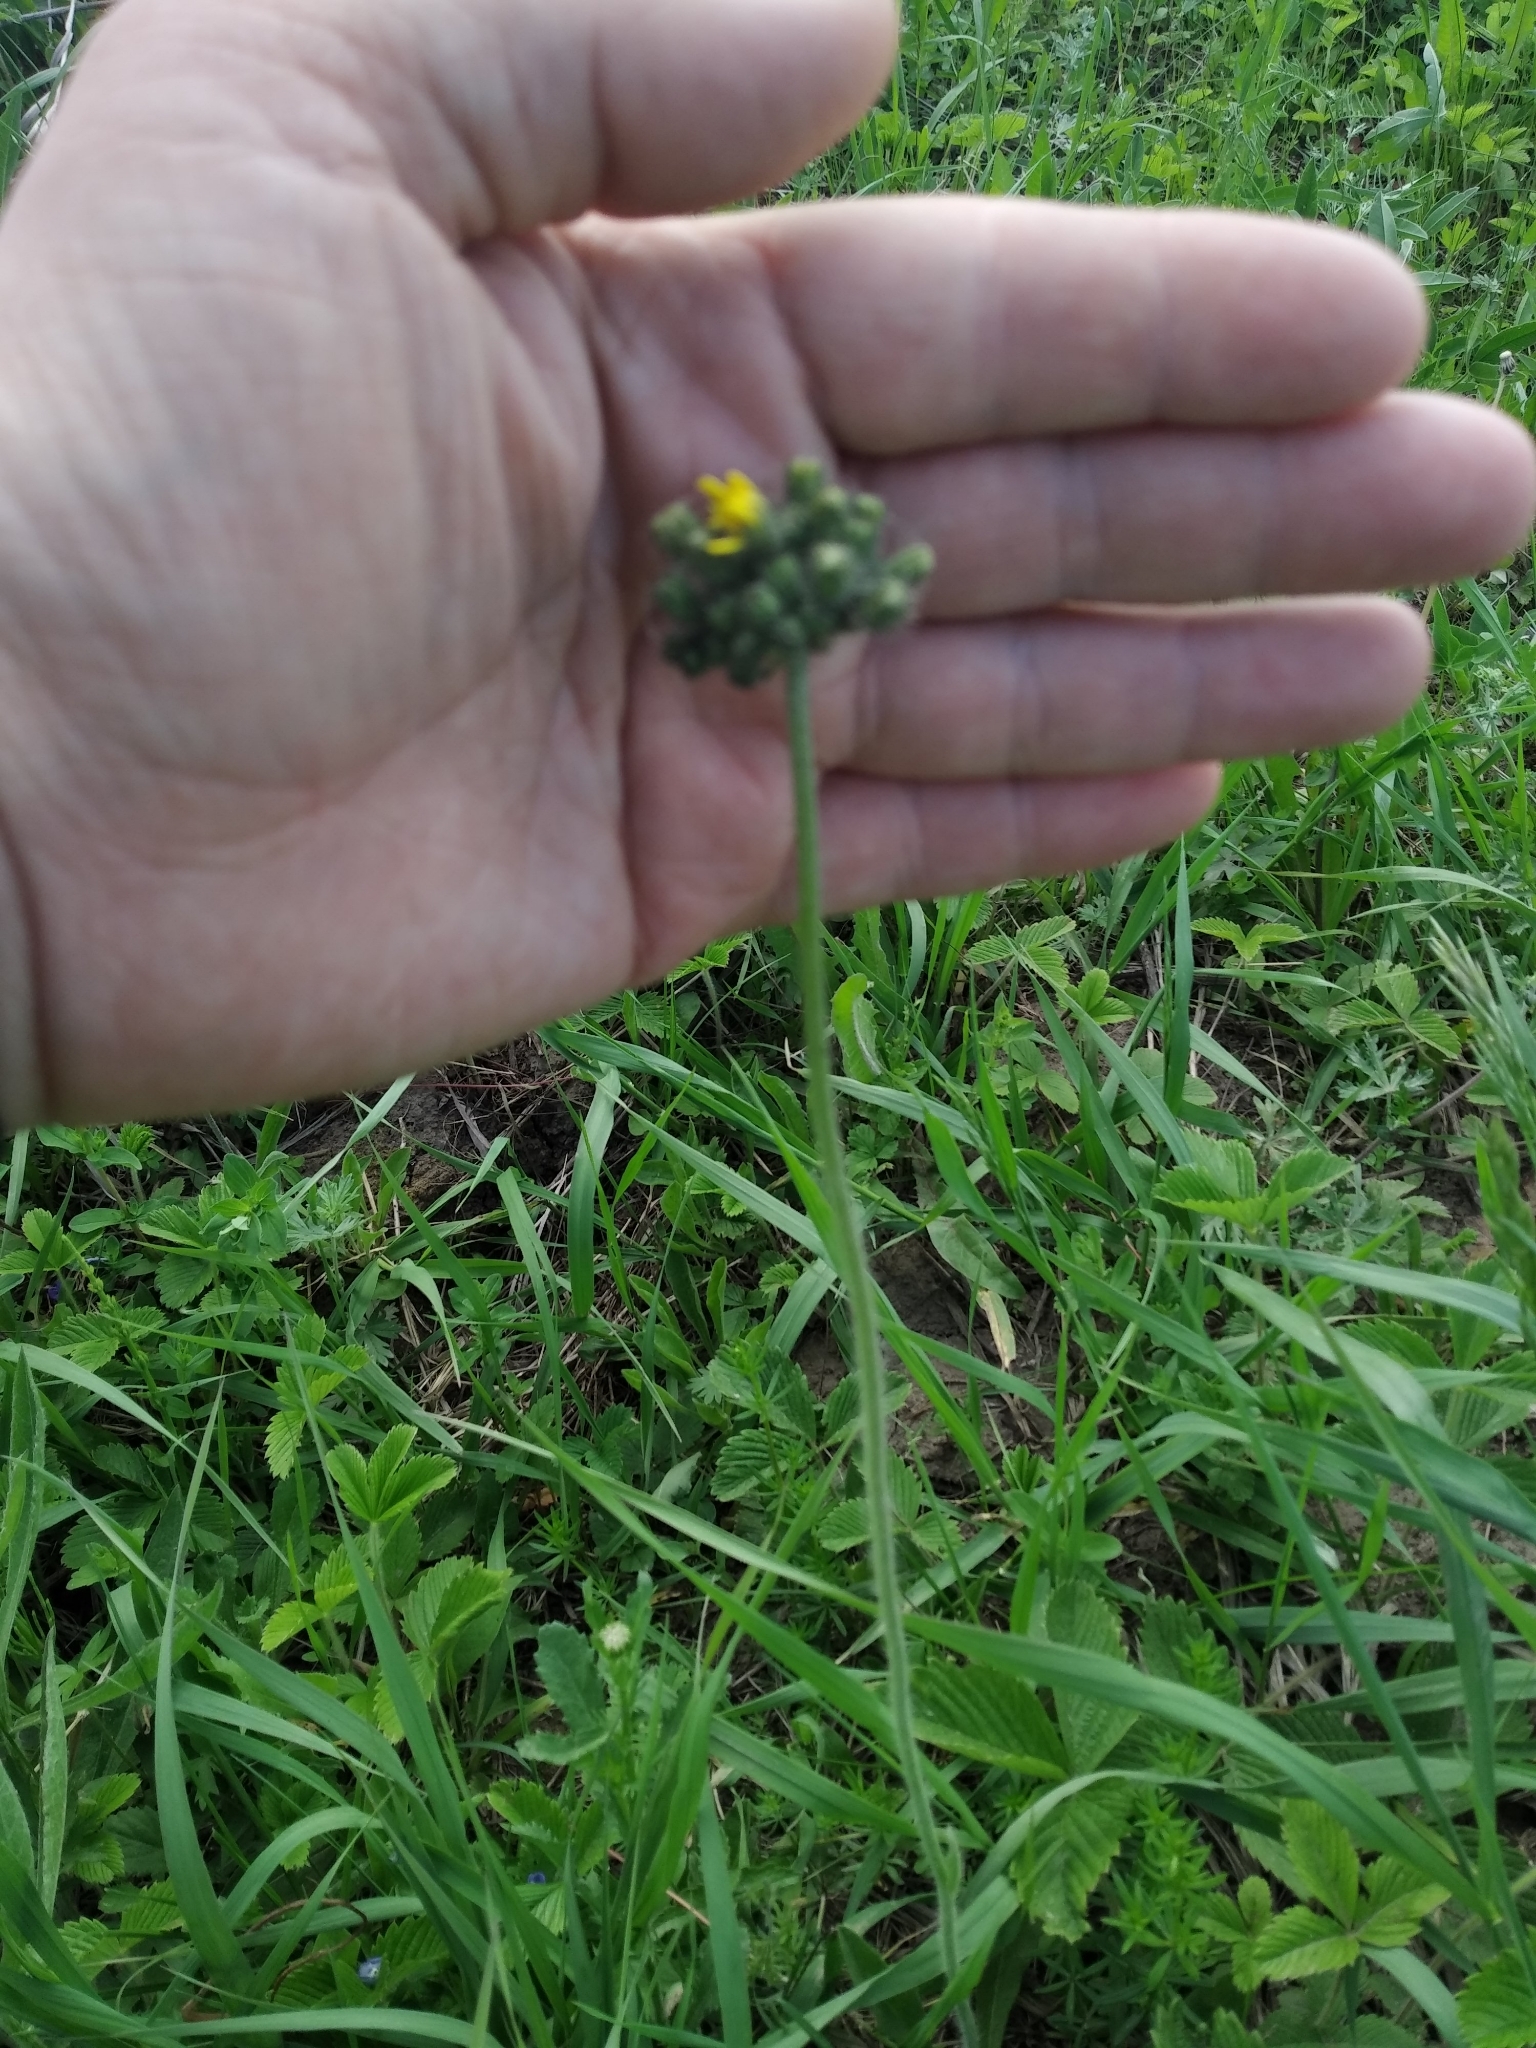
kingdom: Plantae
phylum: Tracheophyta
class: Magnoliopsida
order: Asterales
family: Asteraceae
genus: Pilosella
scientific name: Pilosella
